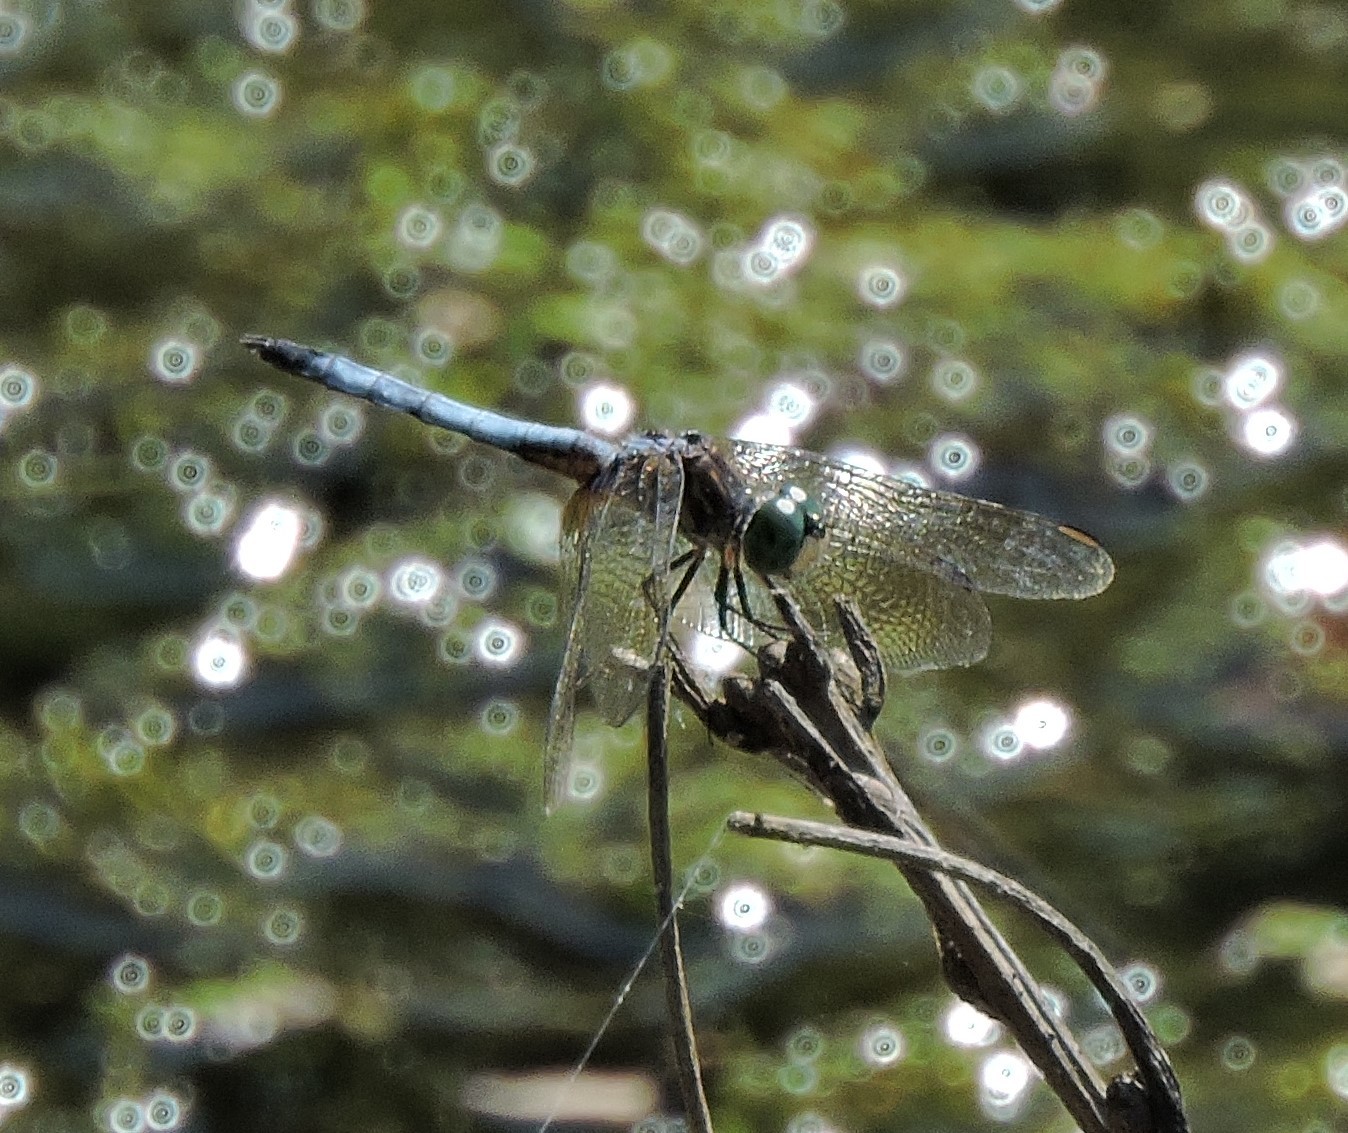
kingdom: Animalia
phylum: Arthropoda
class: Insecta
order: Odonata
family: Libellulidae
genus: Pachydiplax
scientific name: Pachydiplax longipennis
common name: Blue dasher
